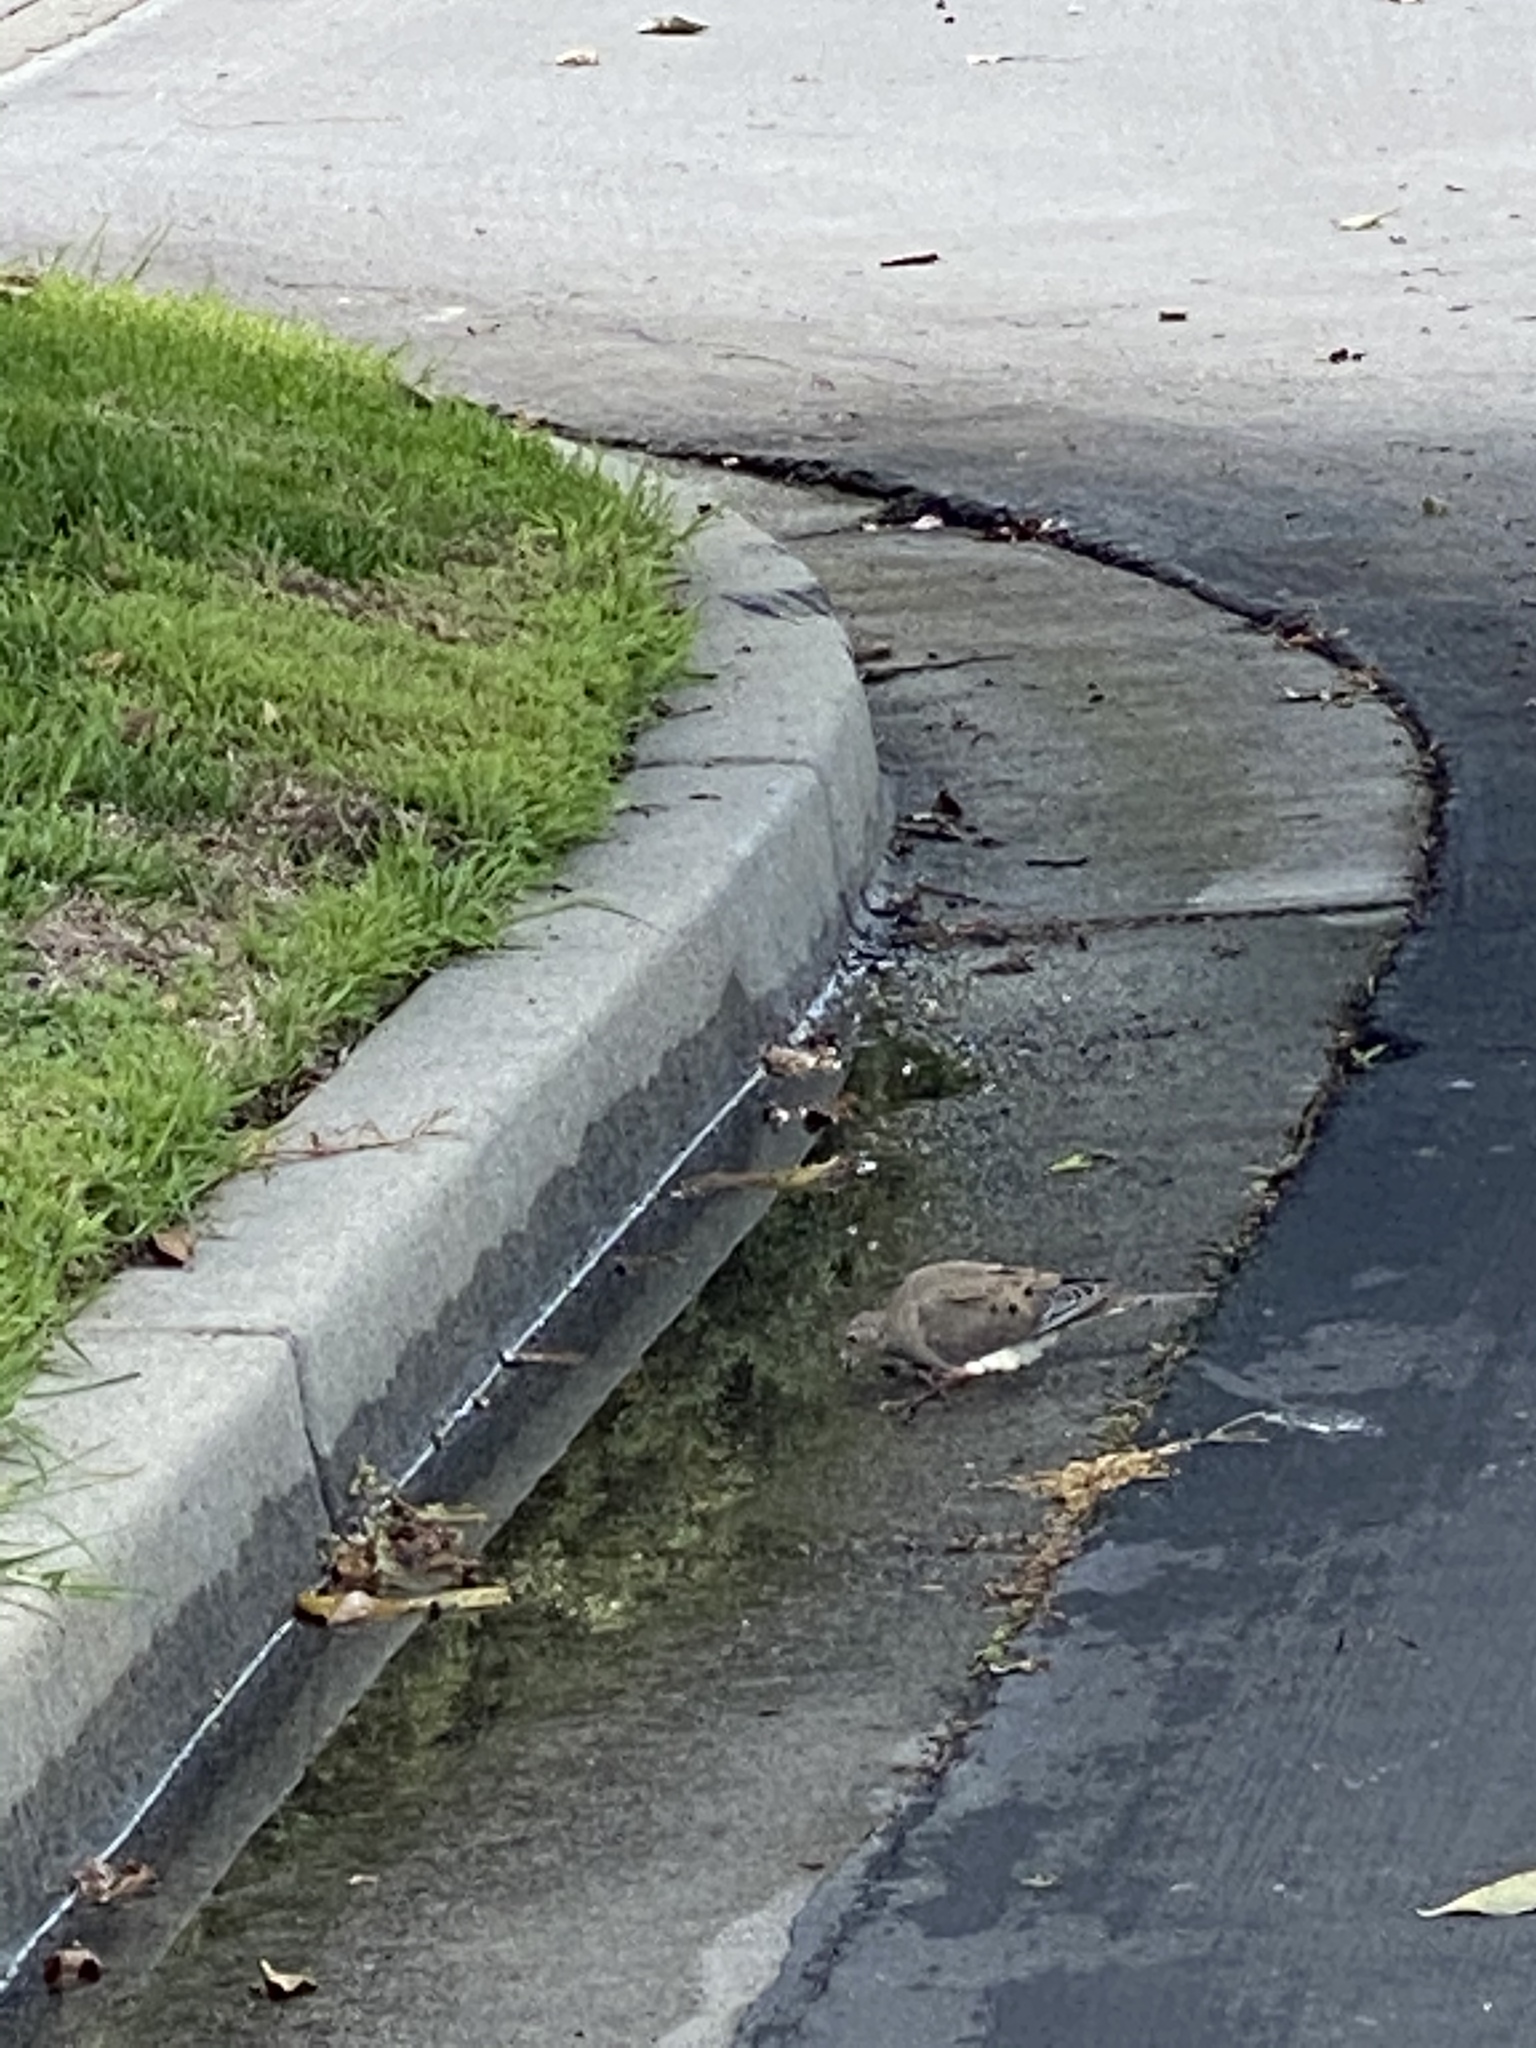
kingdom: Animalia
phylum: Chordata
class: Aves
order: Columbiformes
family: Columbidae
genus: Zenaida
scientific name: Zenaida macroura
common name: Mourning dove
